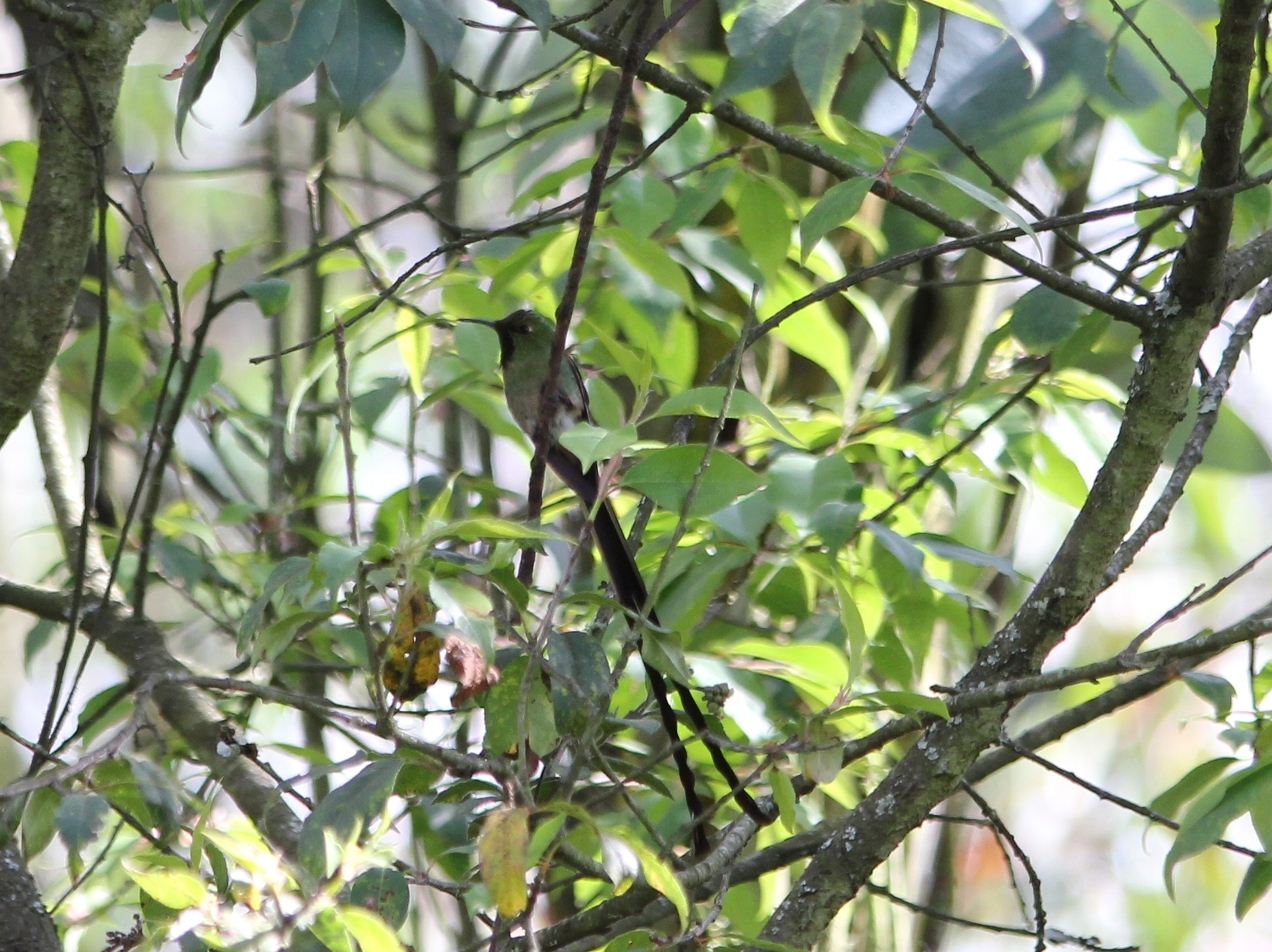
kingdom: Animalia
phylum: Chordata
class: Aves
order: Apodiformes
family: Trochilidae
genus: Lesbia
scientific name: Lesbia victoriae
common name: Black-tailed trainbearer
